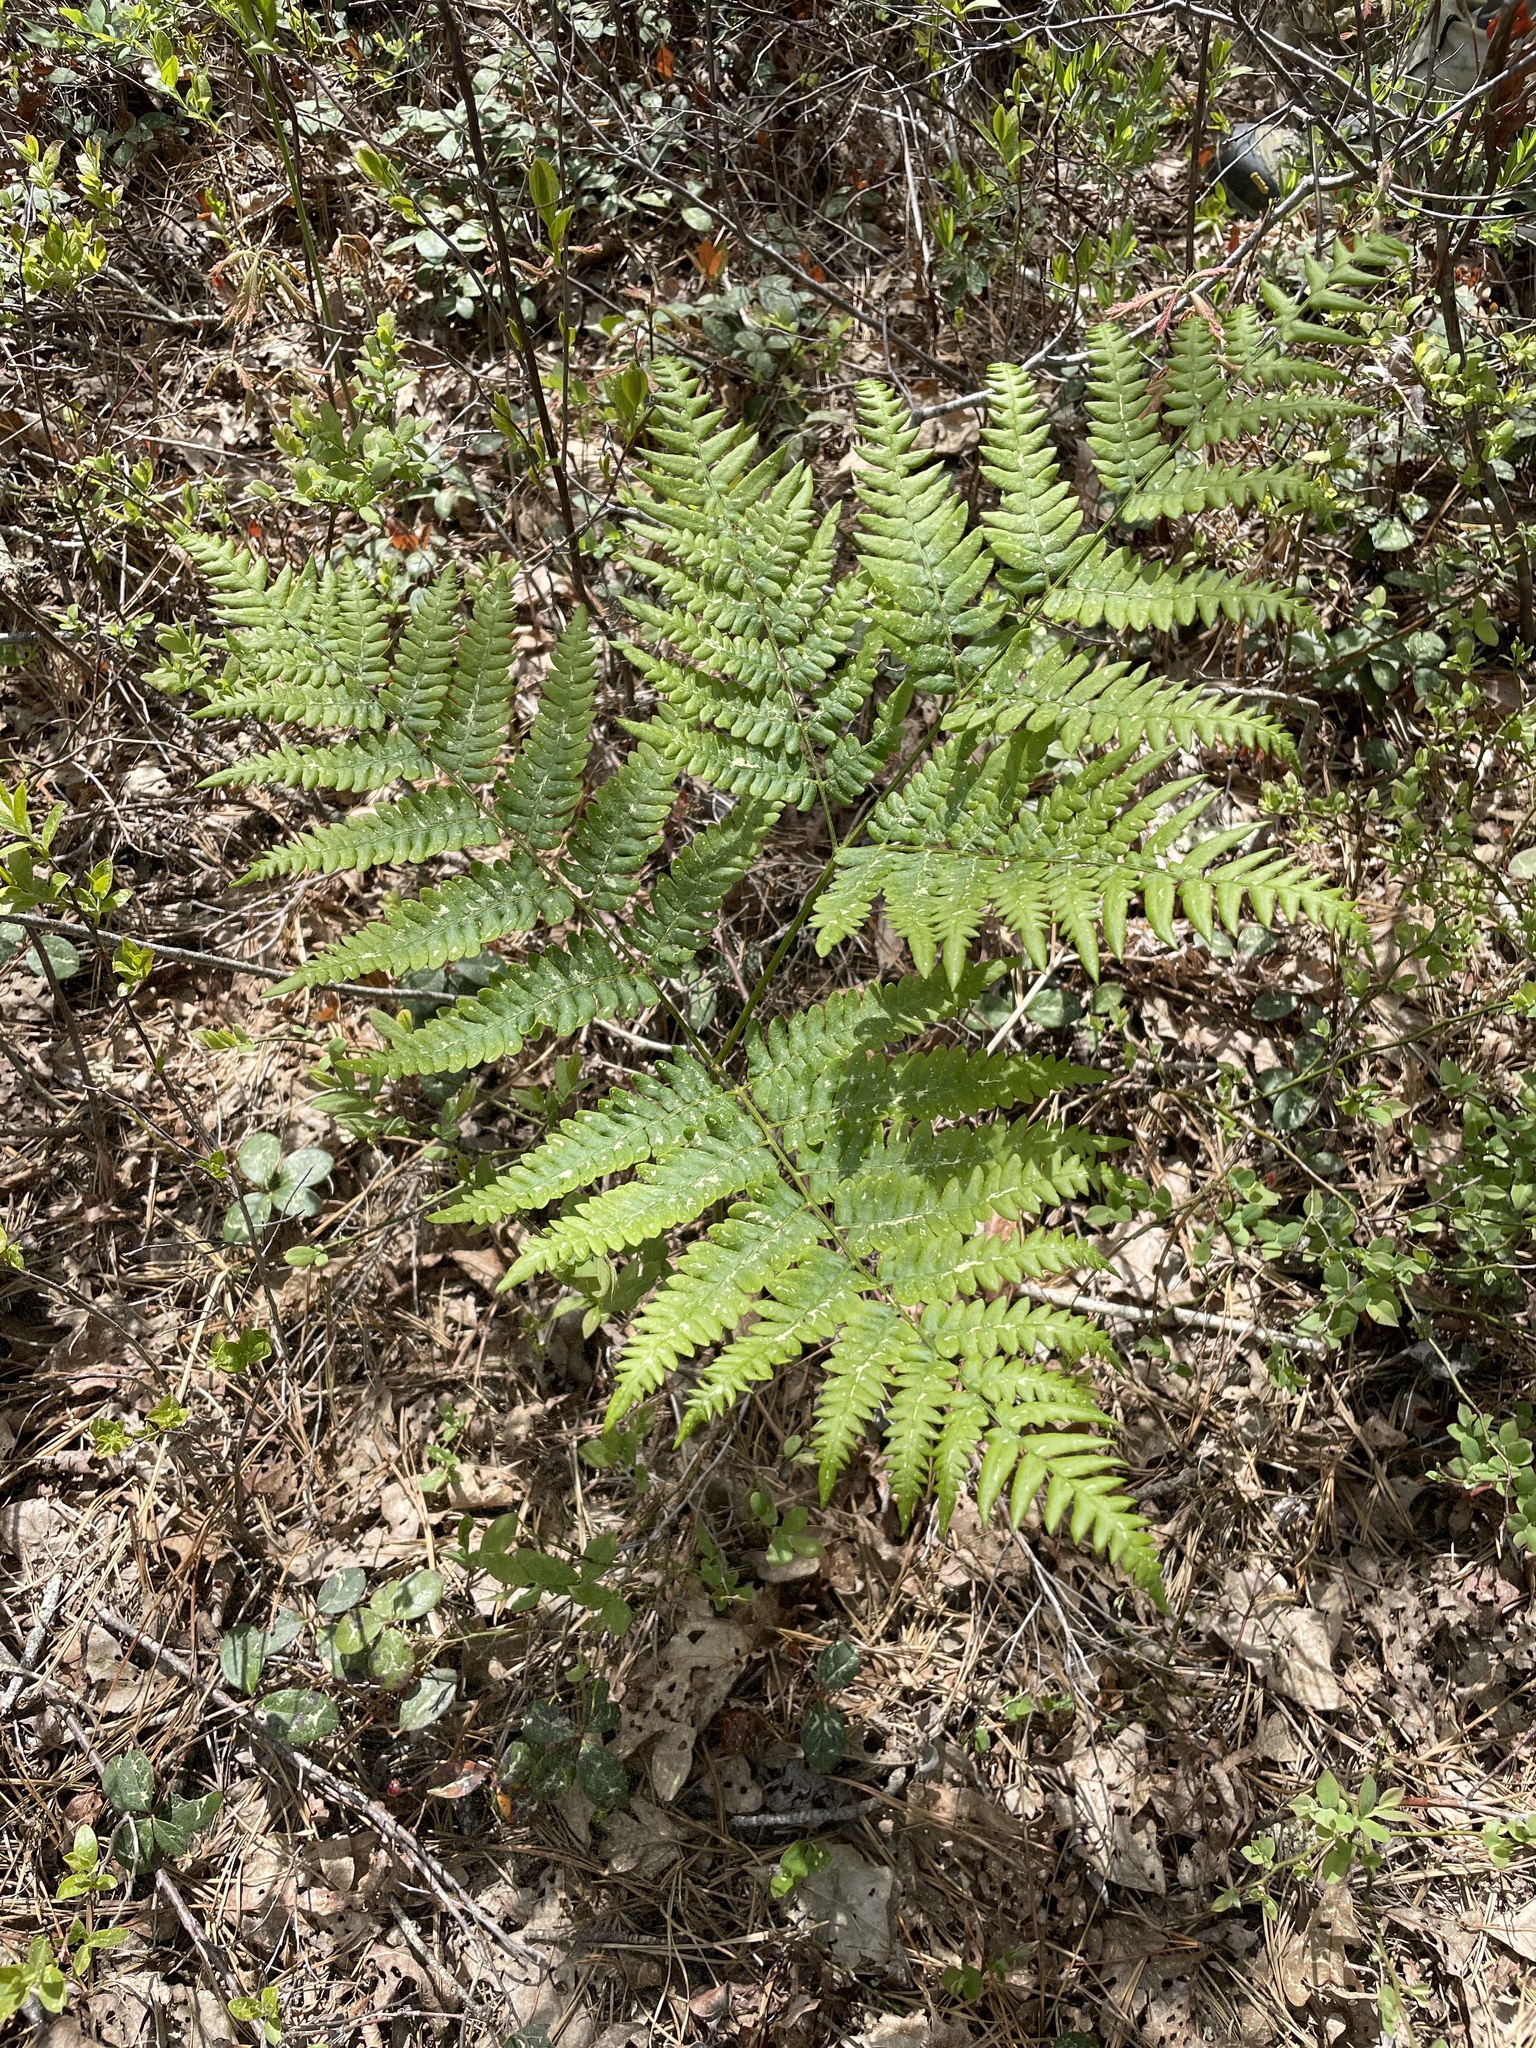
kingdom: Plantae
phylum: Tracheophyta
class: Polypodiopsida
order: Polypodiales
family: Dennstaedtiaceae
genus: Pteridium
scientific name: Pteridium aquilinum
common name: Bracken
